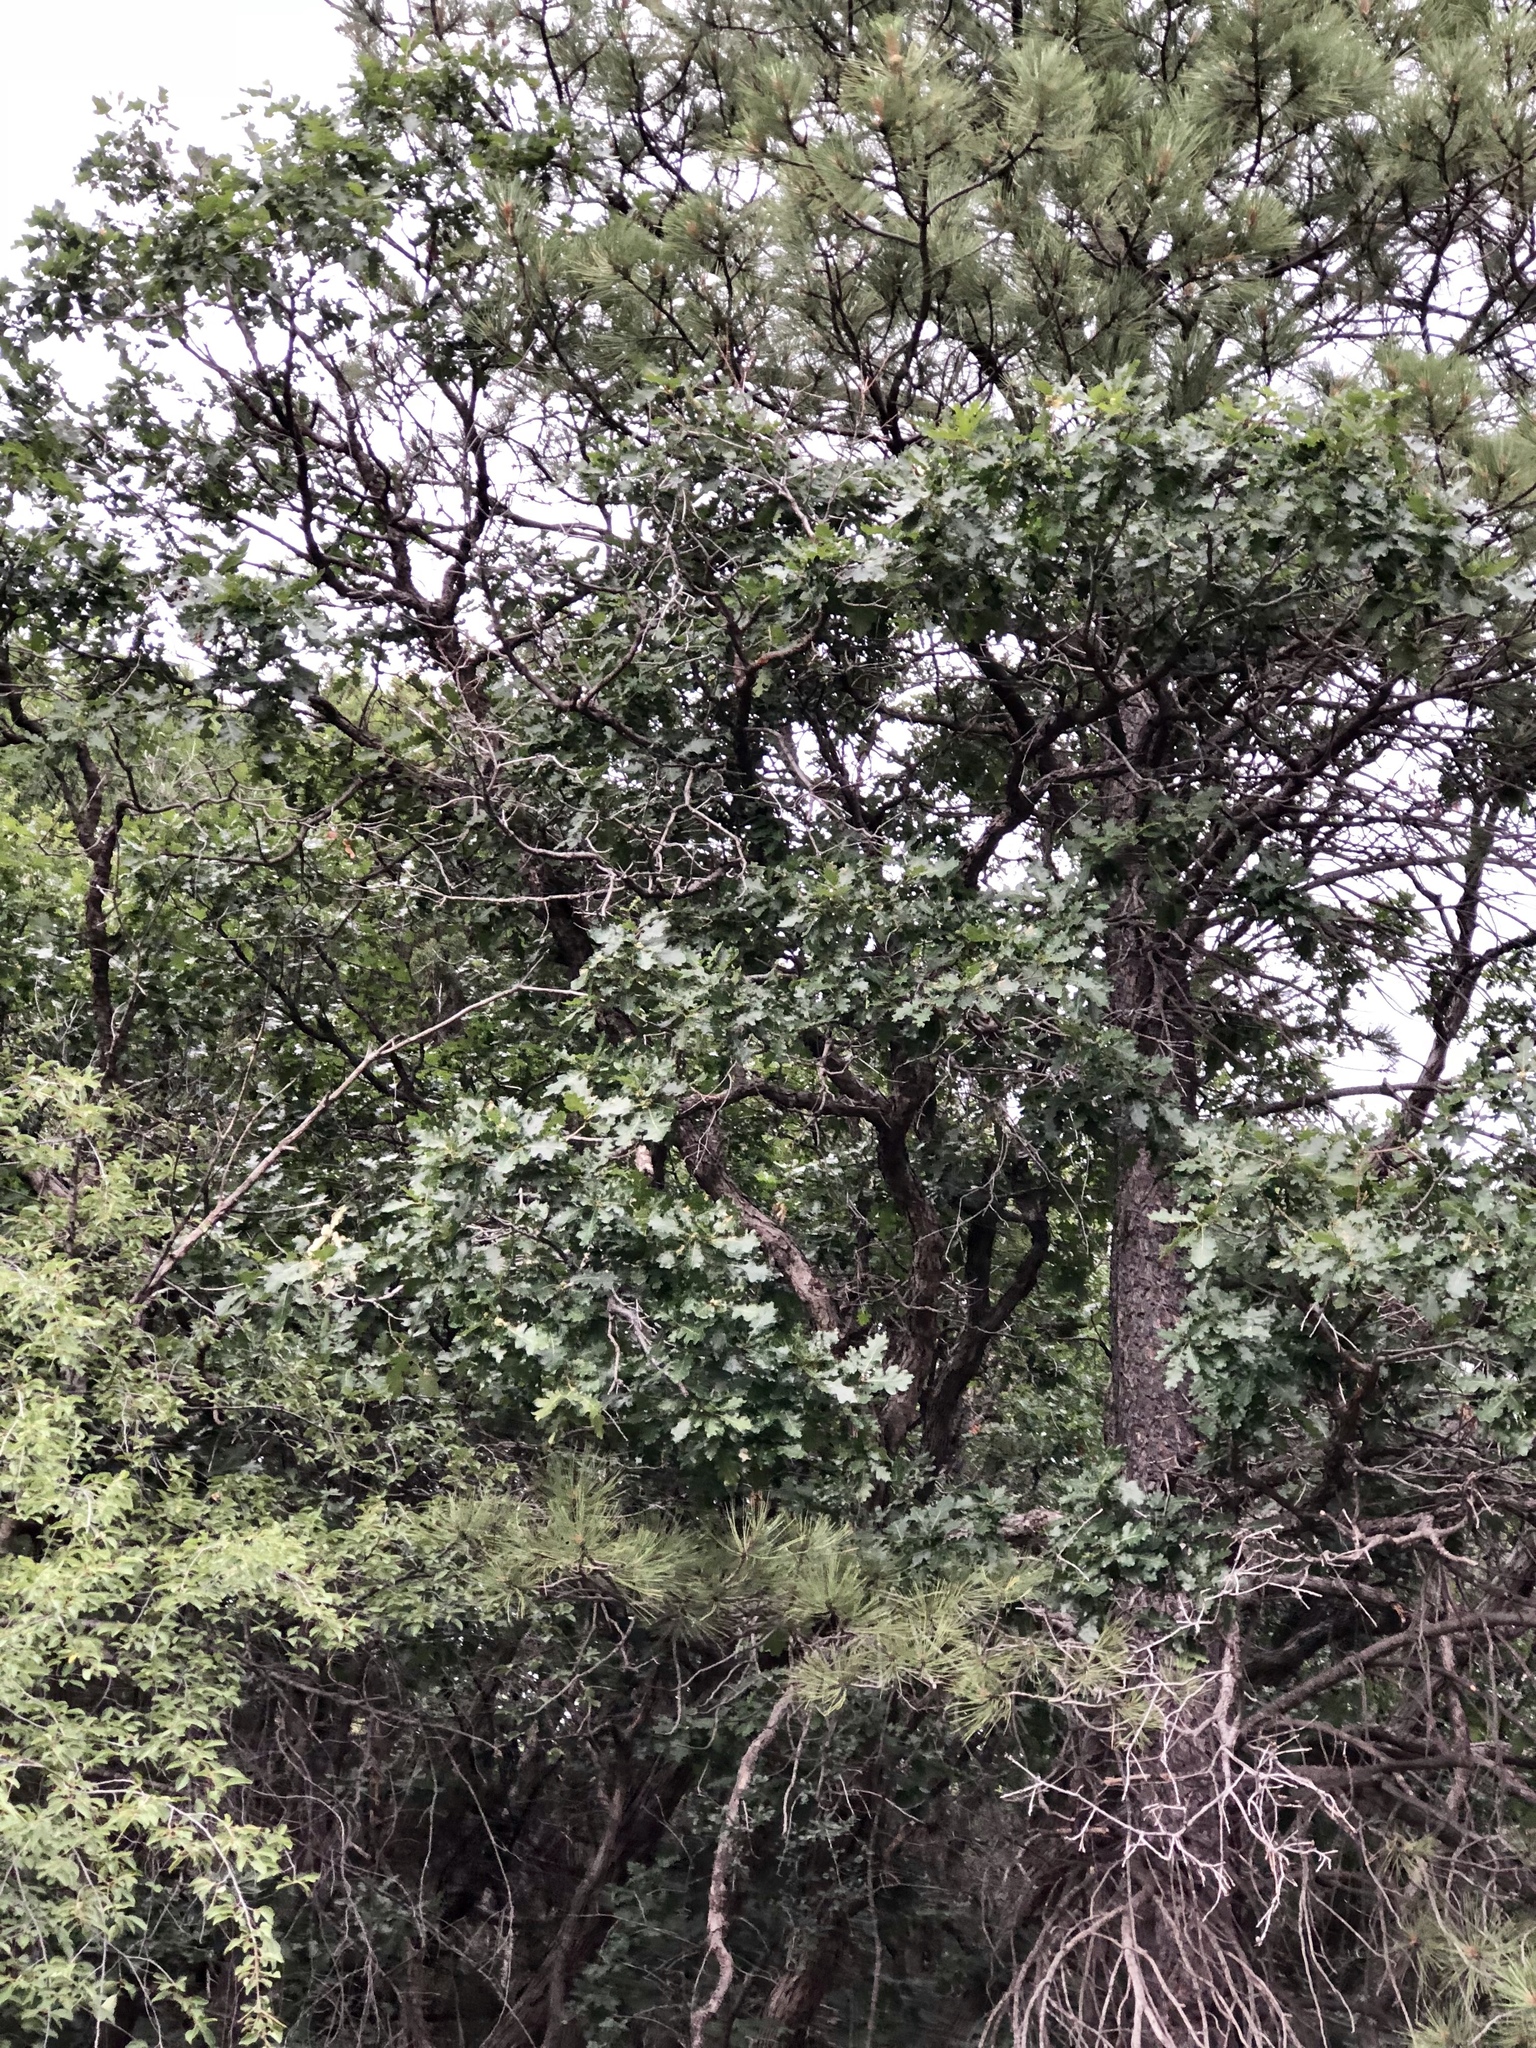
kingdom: Plantae
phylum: Tracheophyta
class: Magnoliopsida
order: Fagales
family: Fagaceae
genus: Quercus
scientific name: Quercus gambelii
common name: Gambel oak
